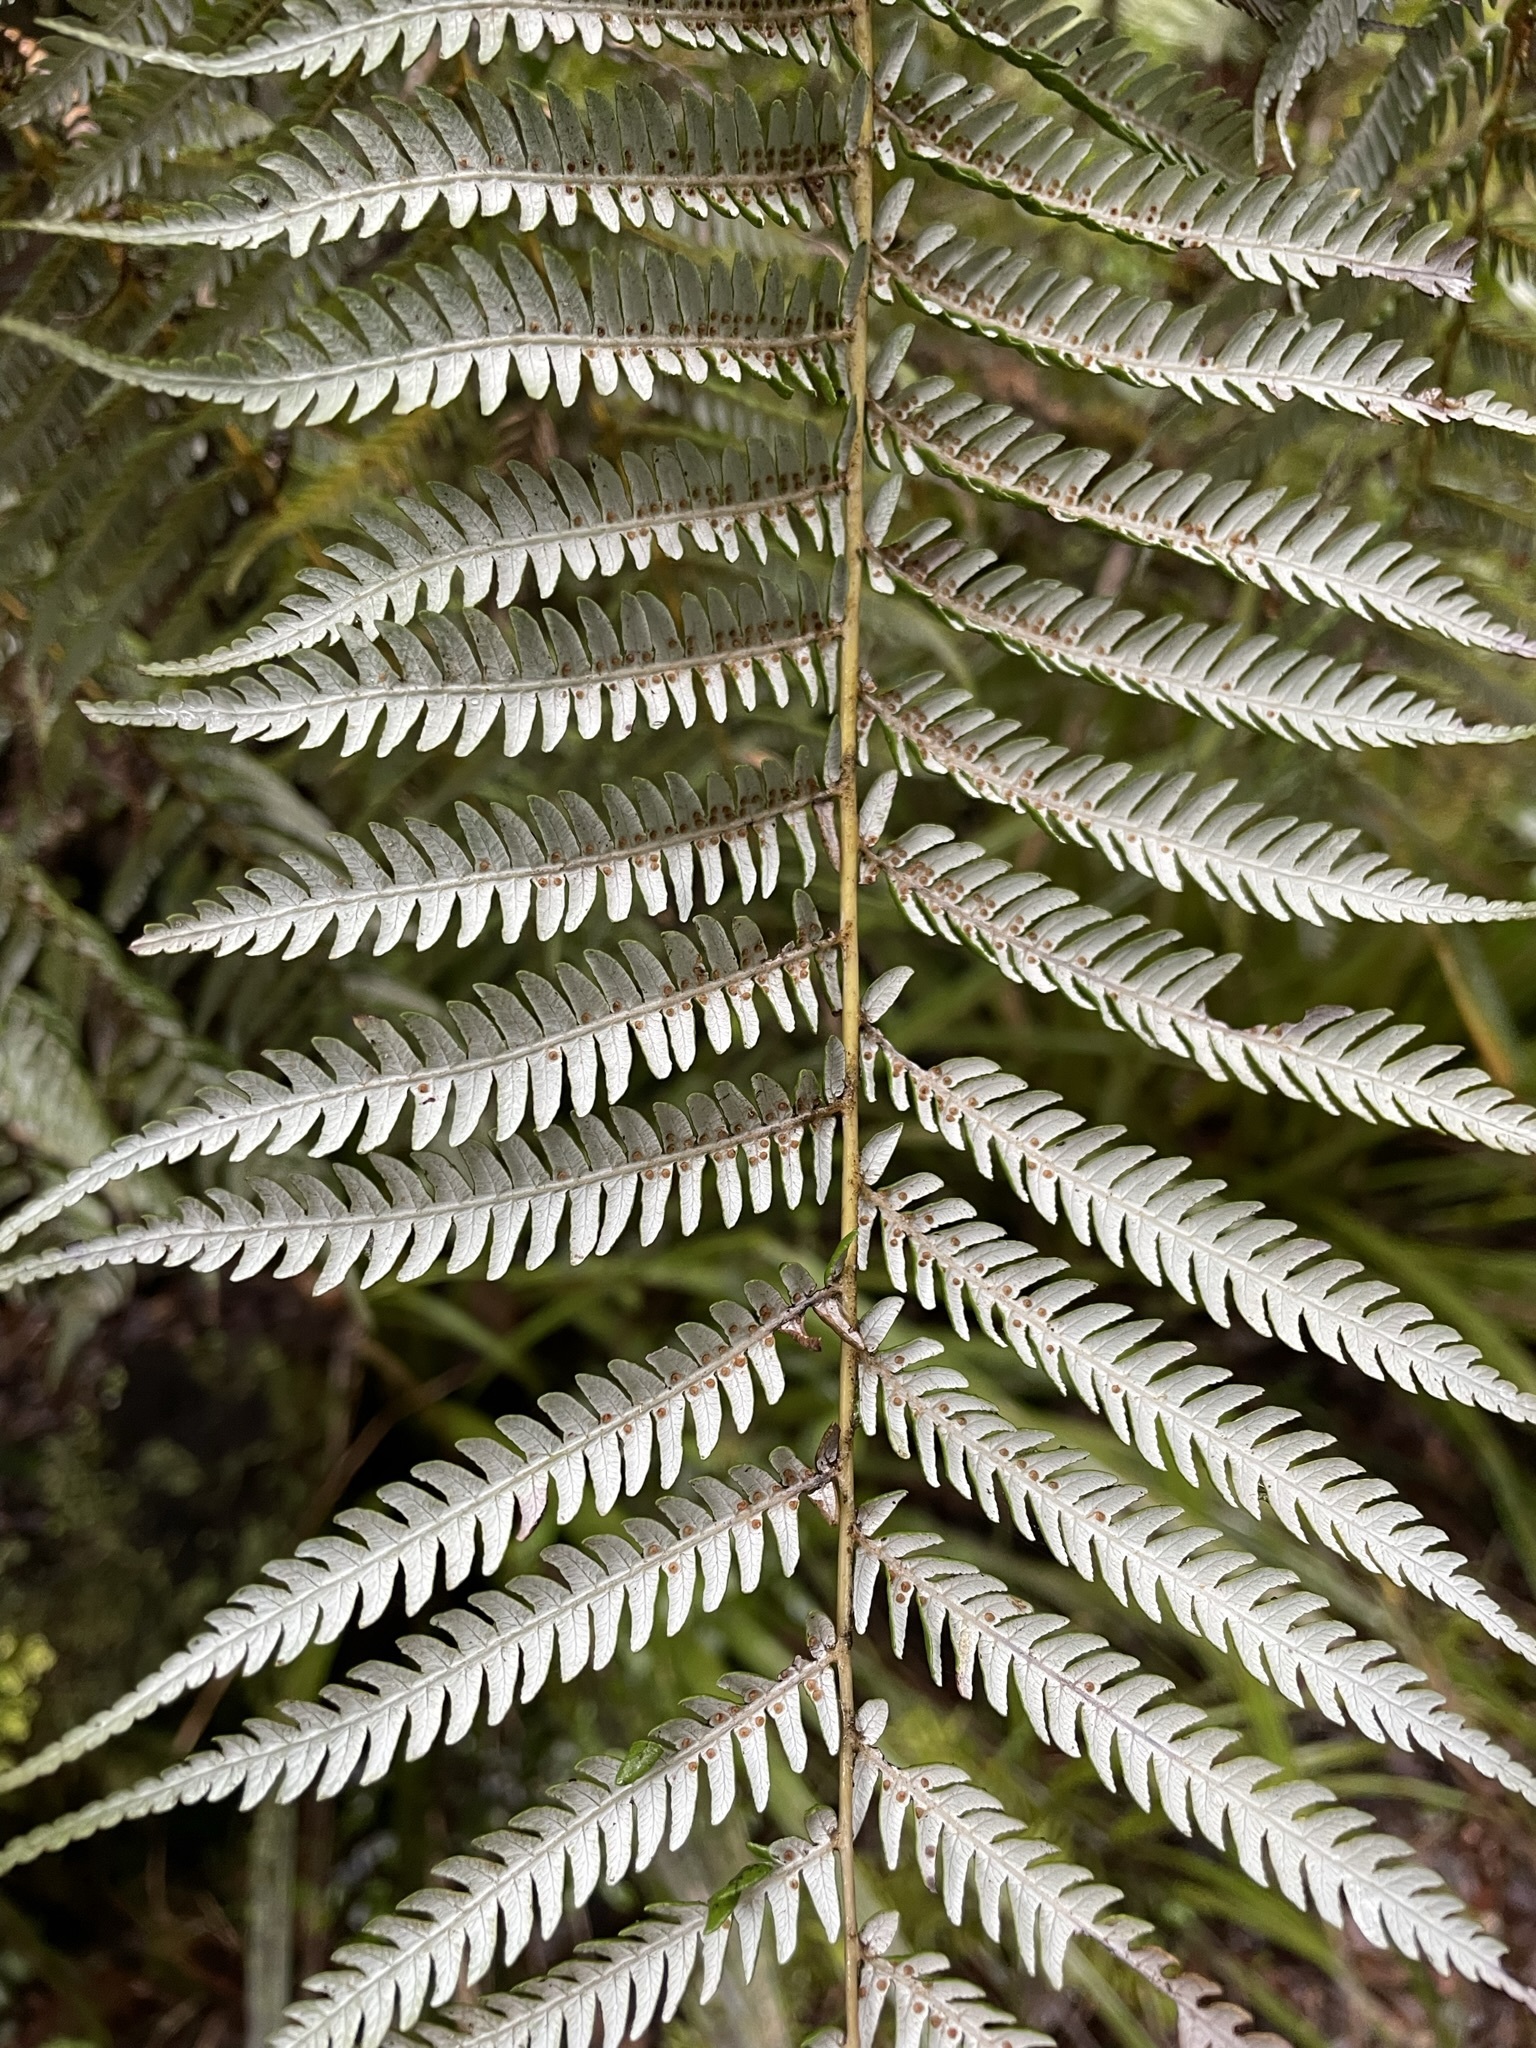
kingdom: Plantae
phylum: Tracheophyta
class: Polypodiopsida
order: Cyatheales
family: Cyatheaceae
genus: Alsophila
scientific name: Alsophila dealbata
